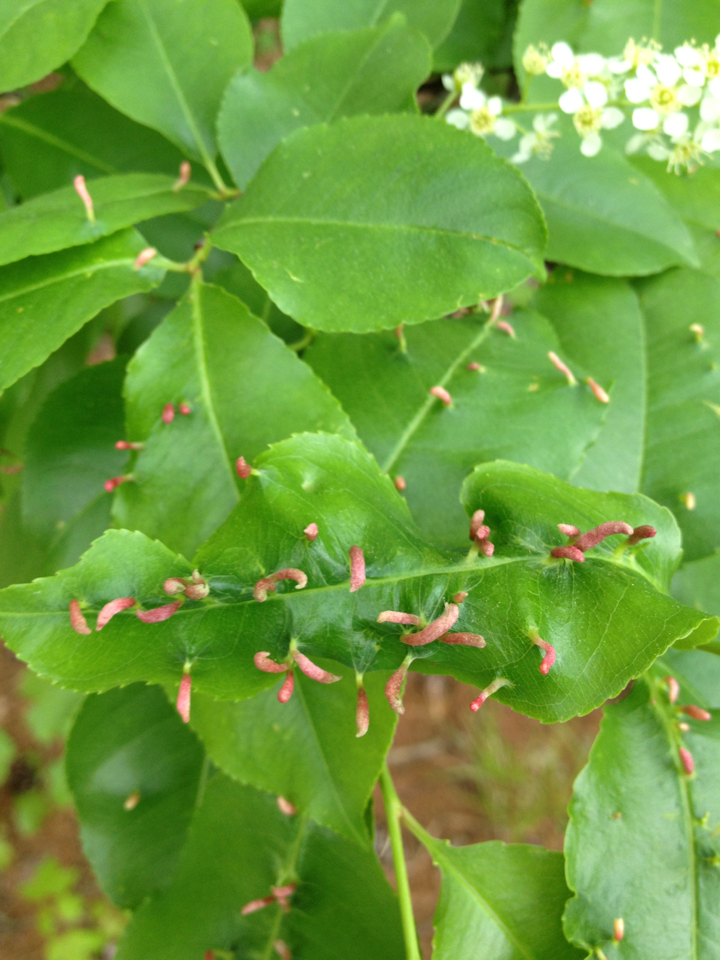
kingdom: Animalia
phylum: Arthropoda
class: Arachnida
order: Trombidiformes
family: Eriophyidae
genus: Eriophyes
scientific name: Eriophyes
